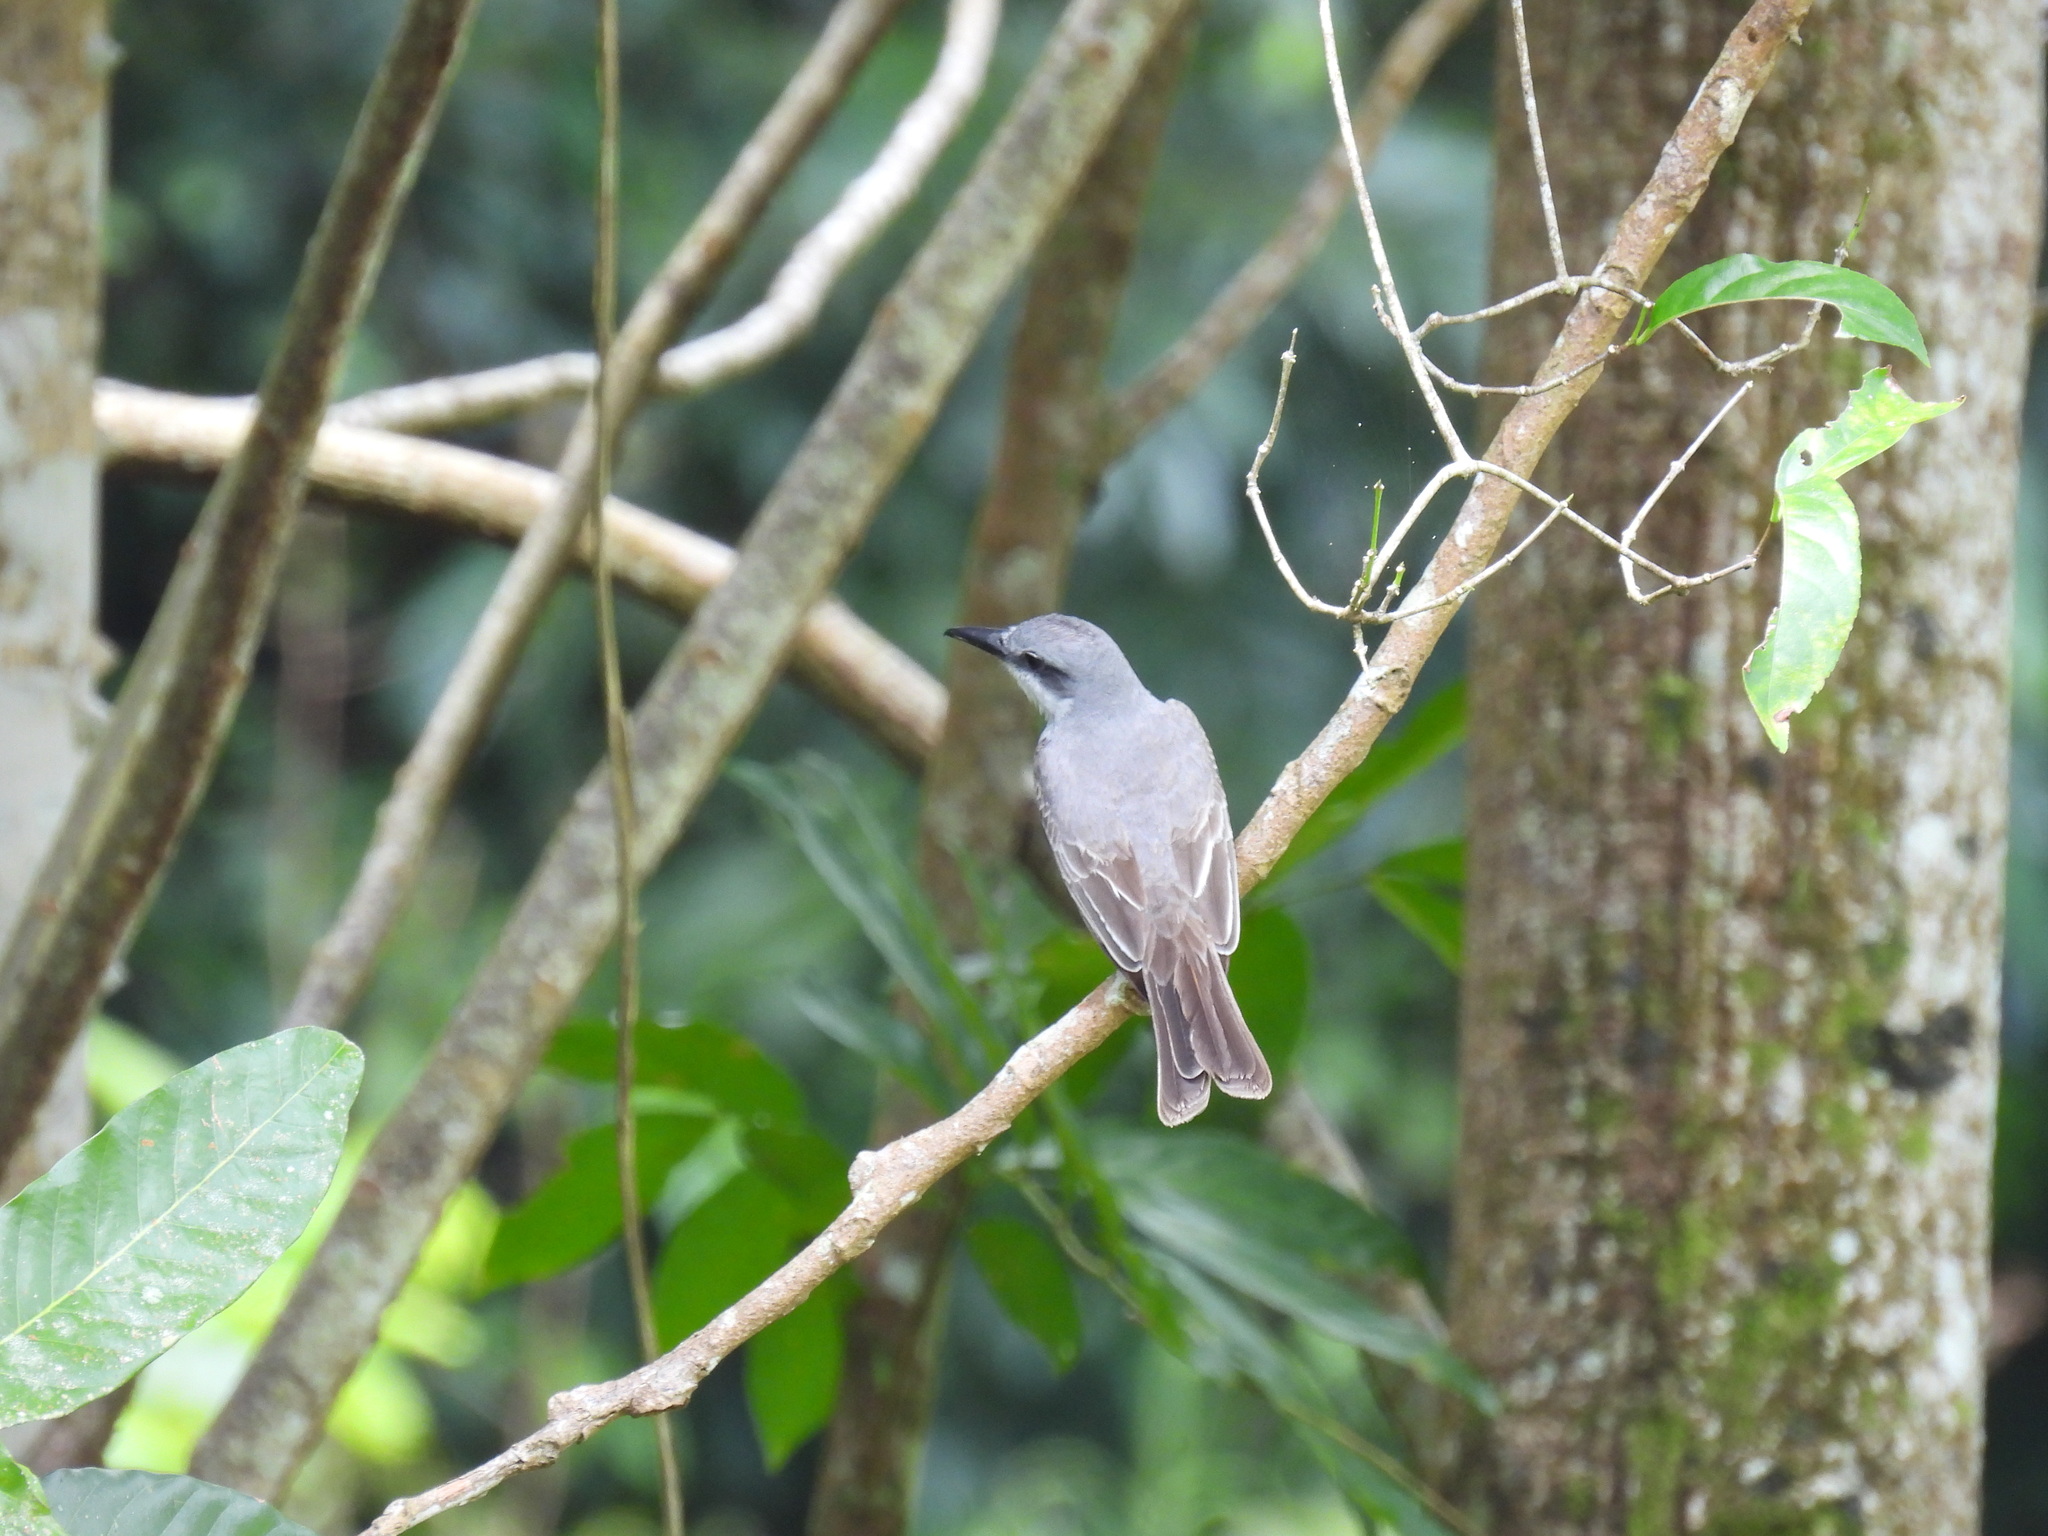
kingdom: Animalia
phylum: Chordata
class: Aves
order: Passeriformes
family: Tyrannidae
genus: Tyrannus
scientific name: Tyrannus dominicensis
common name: Gray kingbird
